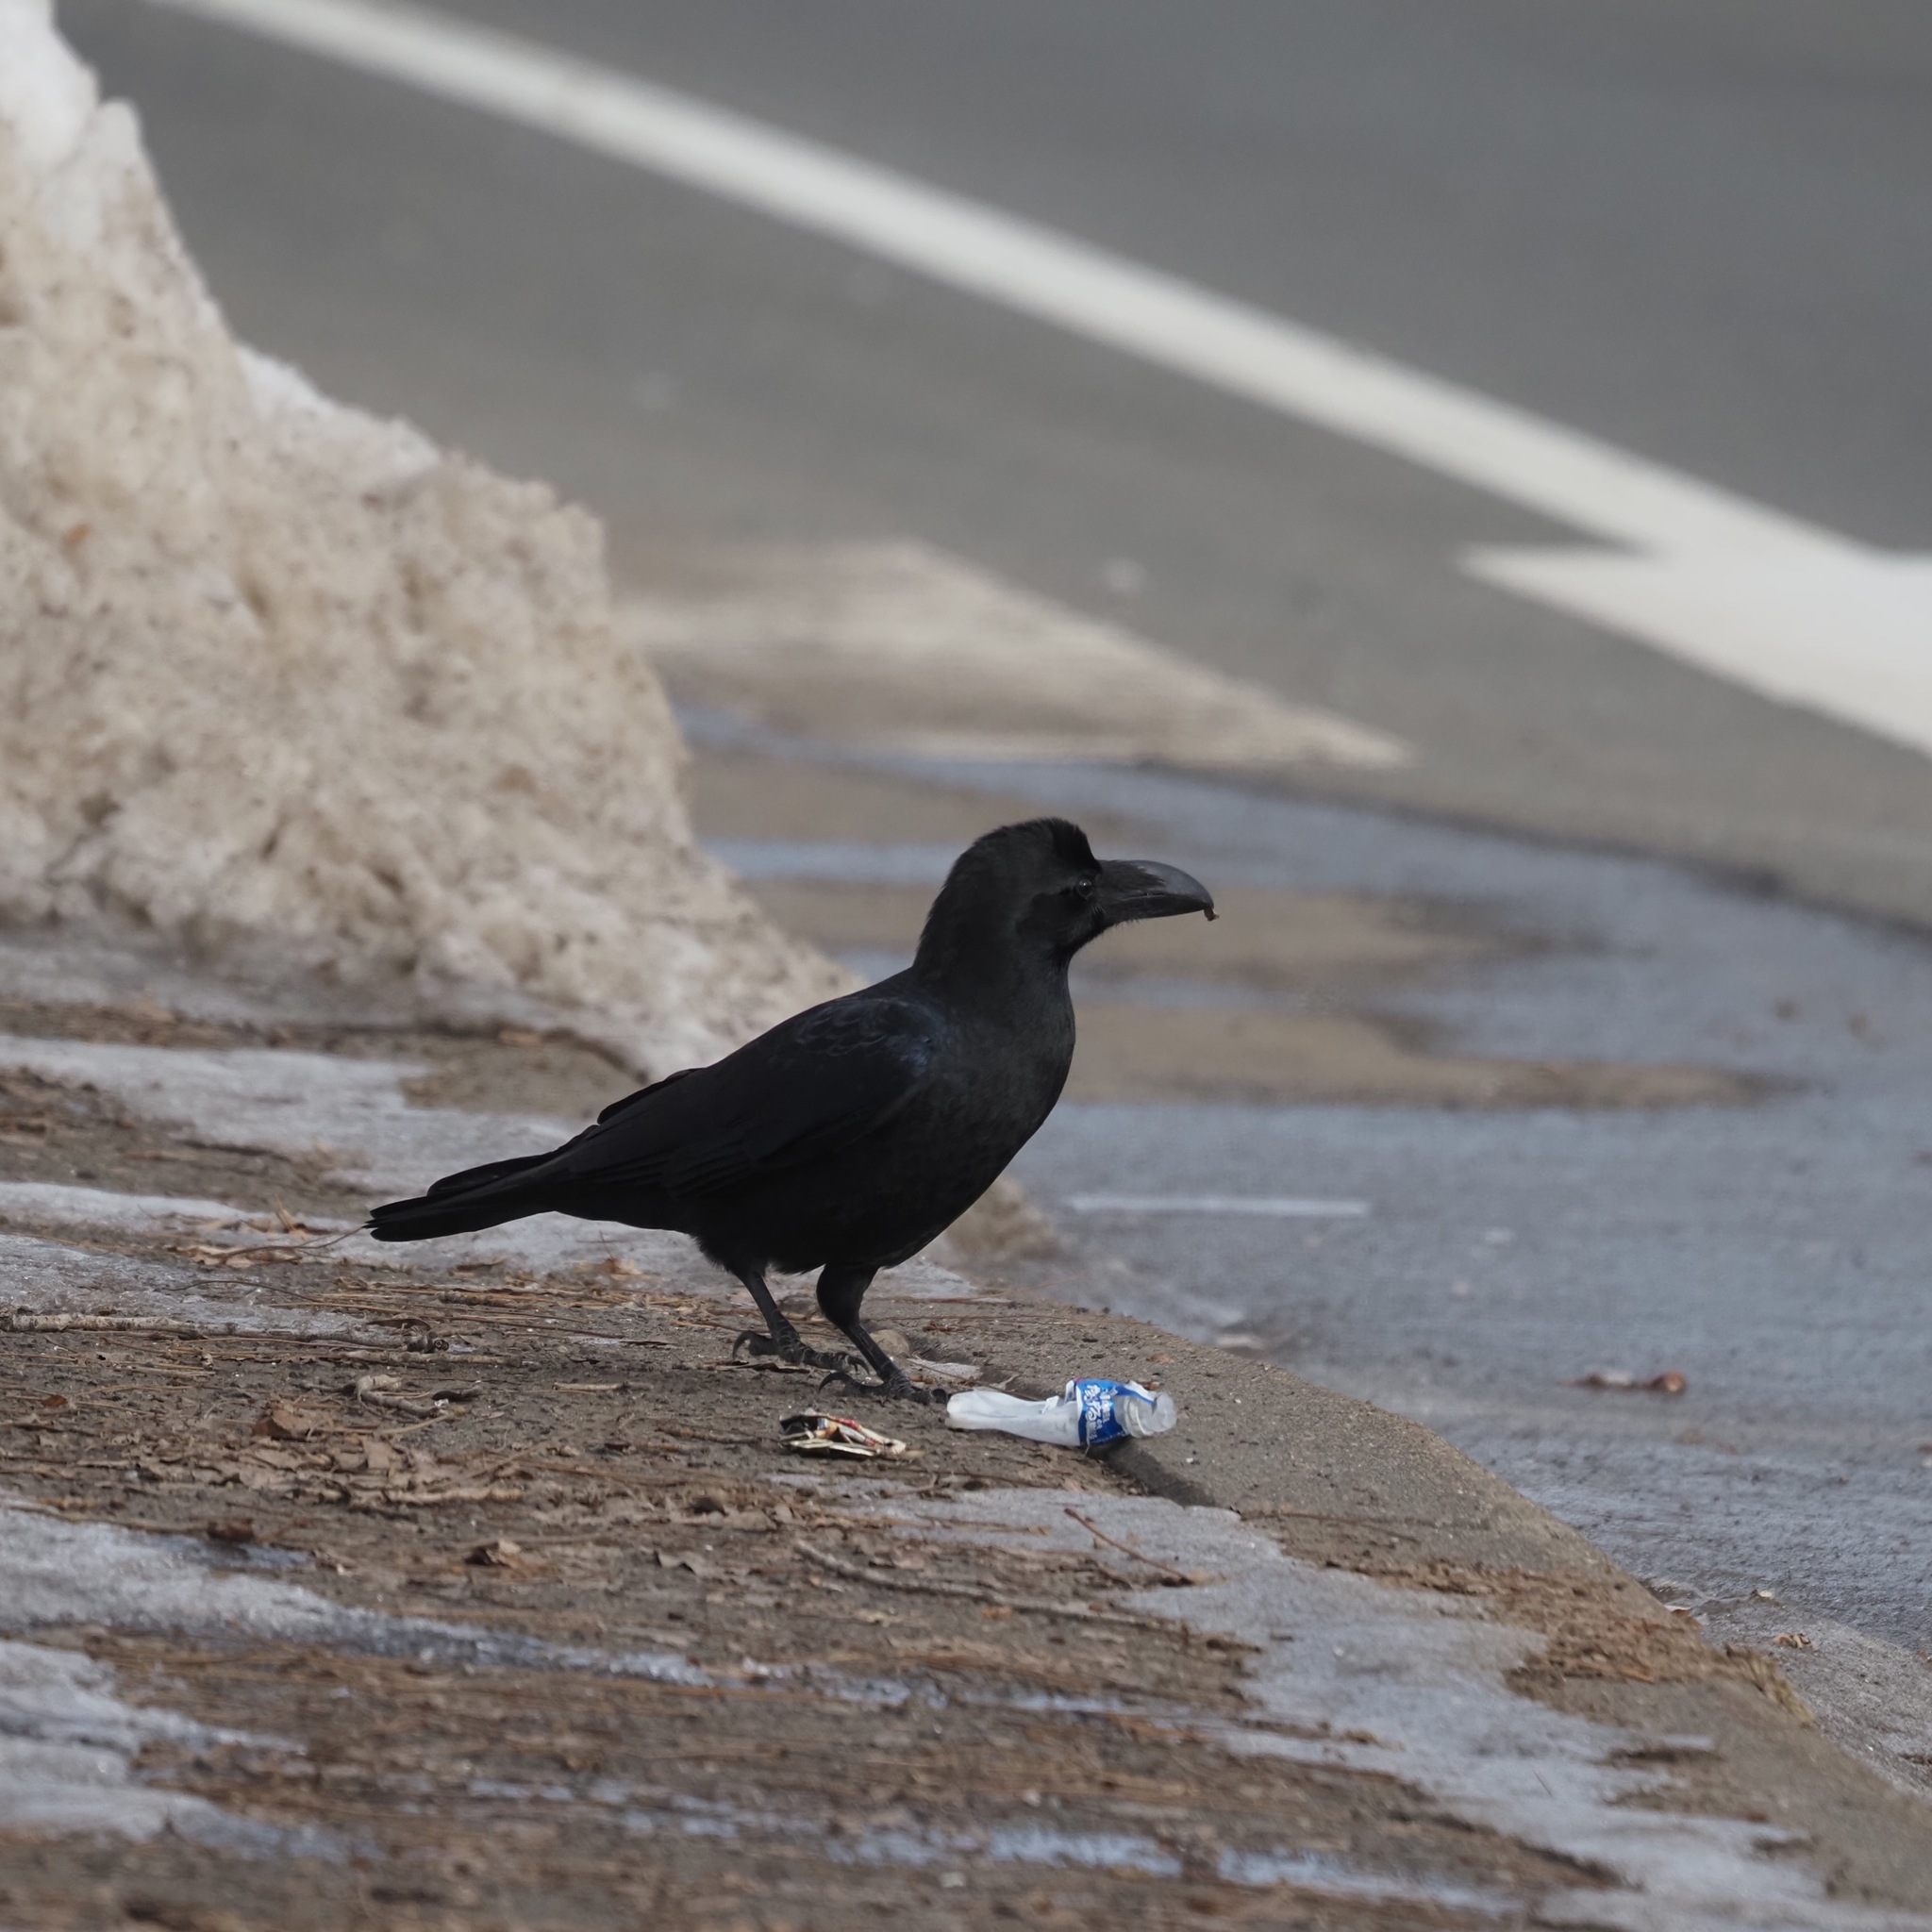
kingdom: Animalia
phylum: Chordata
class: Aves
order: Passeriformes
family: Corvidae
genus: Corvus
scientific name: Corvus macrorhynchos
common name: Large-billed crow
